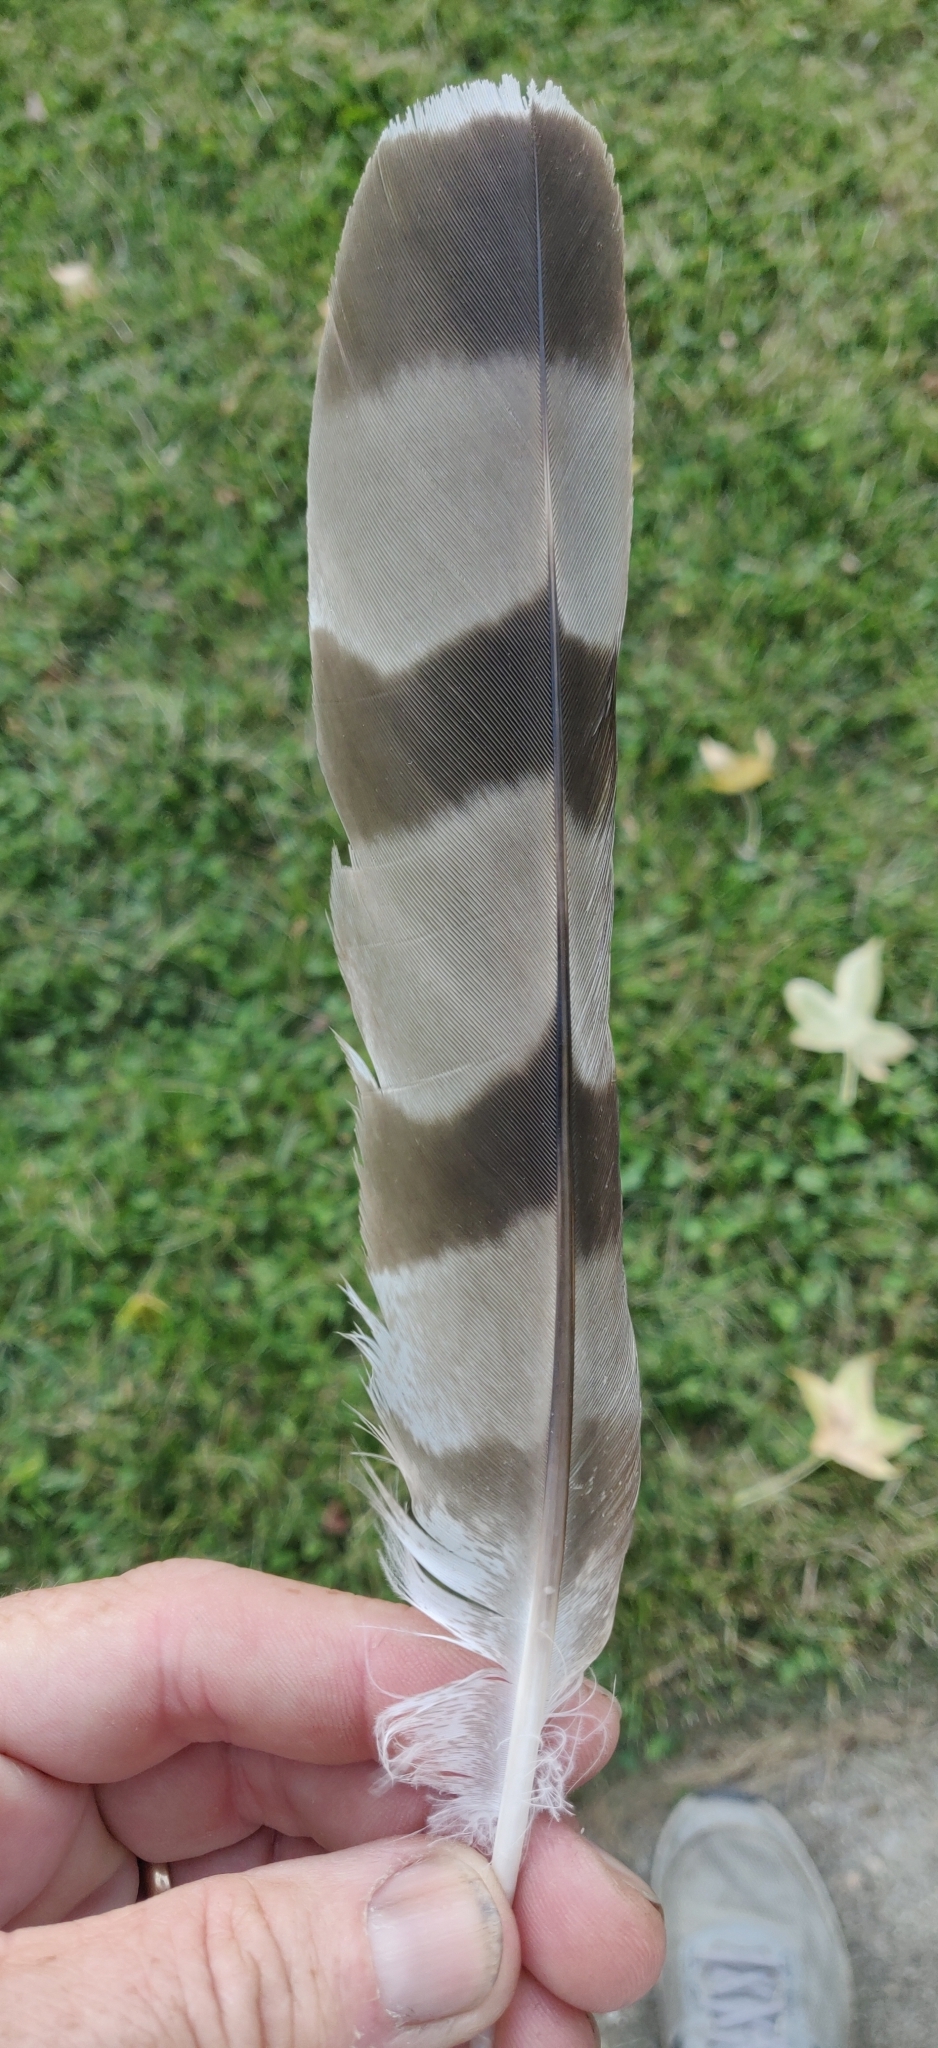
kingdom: Animalia
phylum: Chordata
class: Aves
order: Accipitriformes
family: Accipitridae
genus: Accipiter
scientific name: Accipiter cooperii
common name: Cooper's hawk
